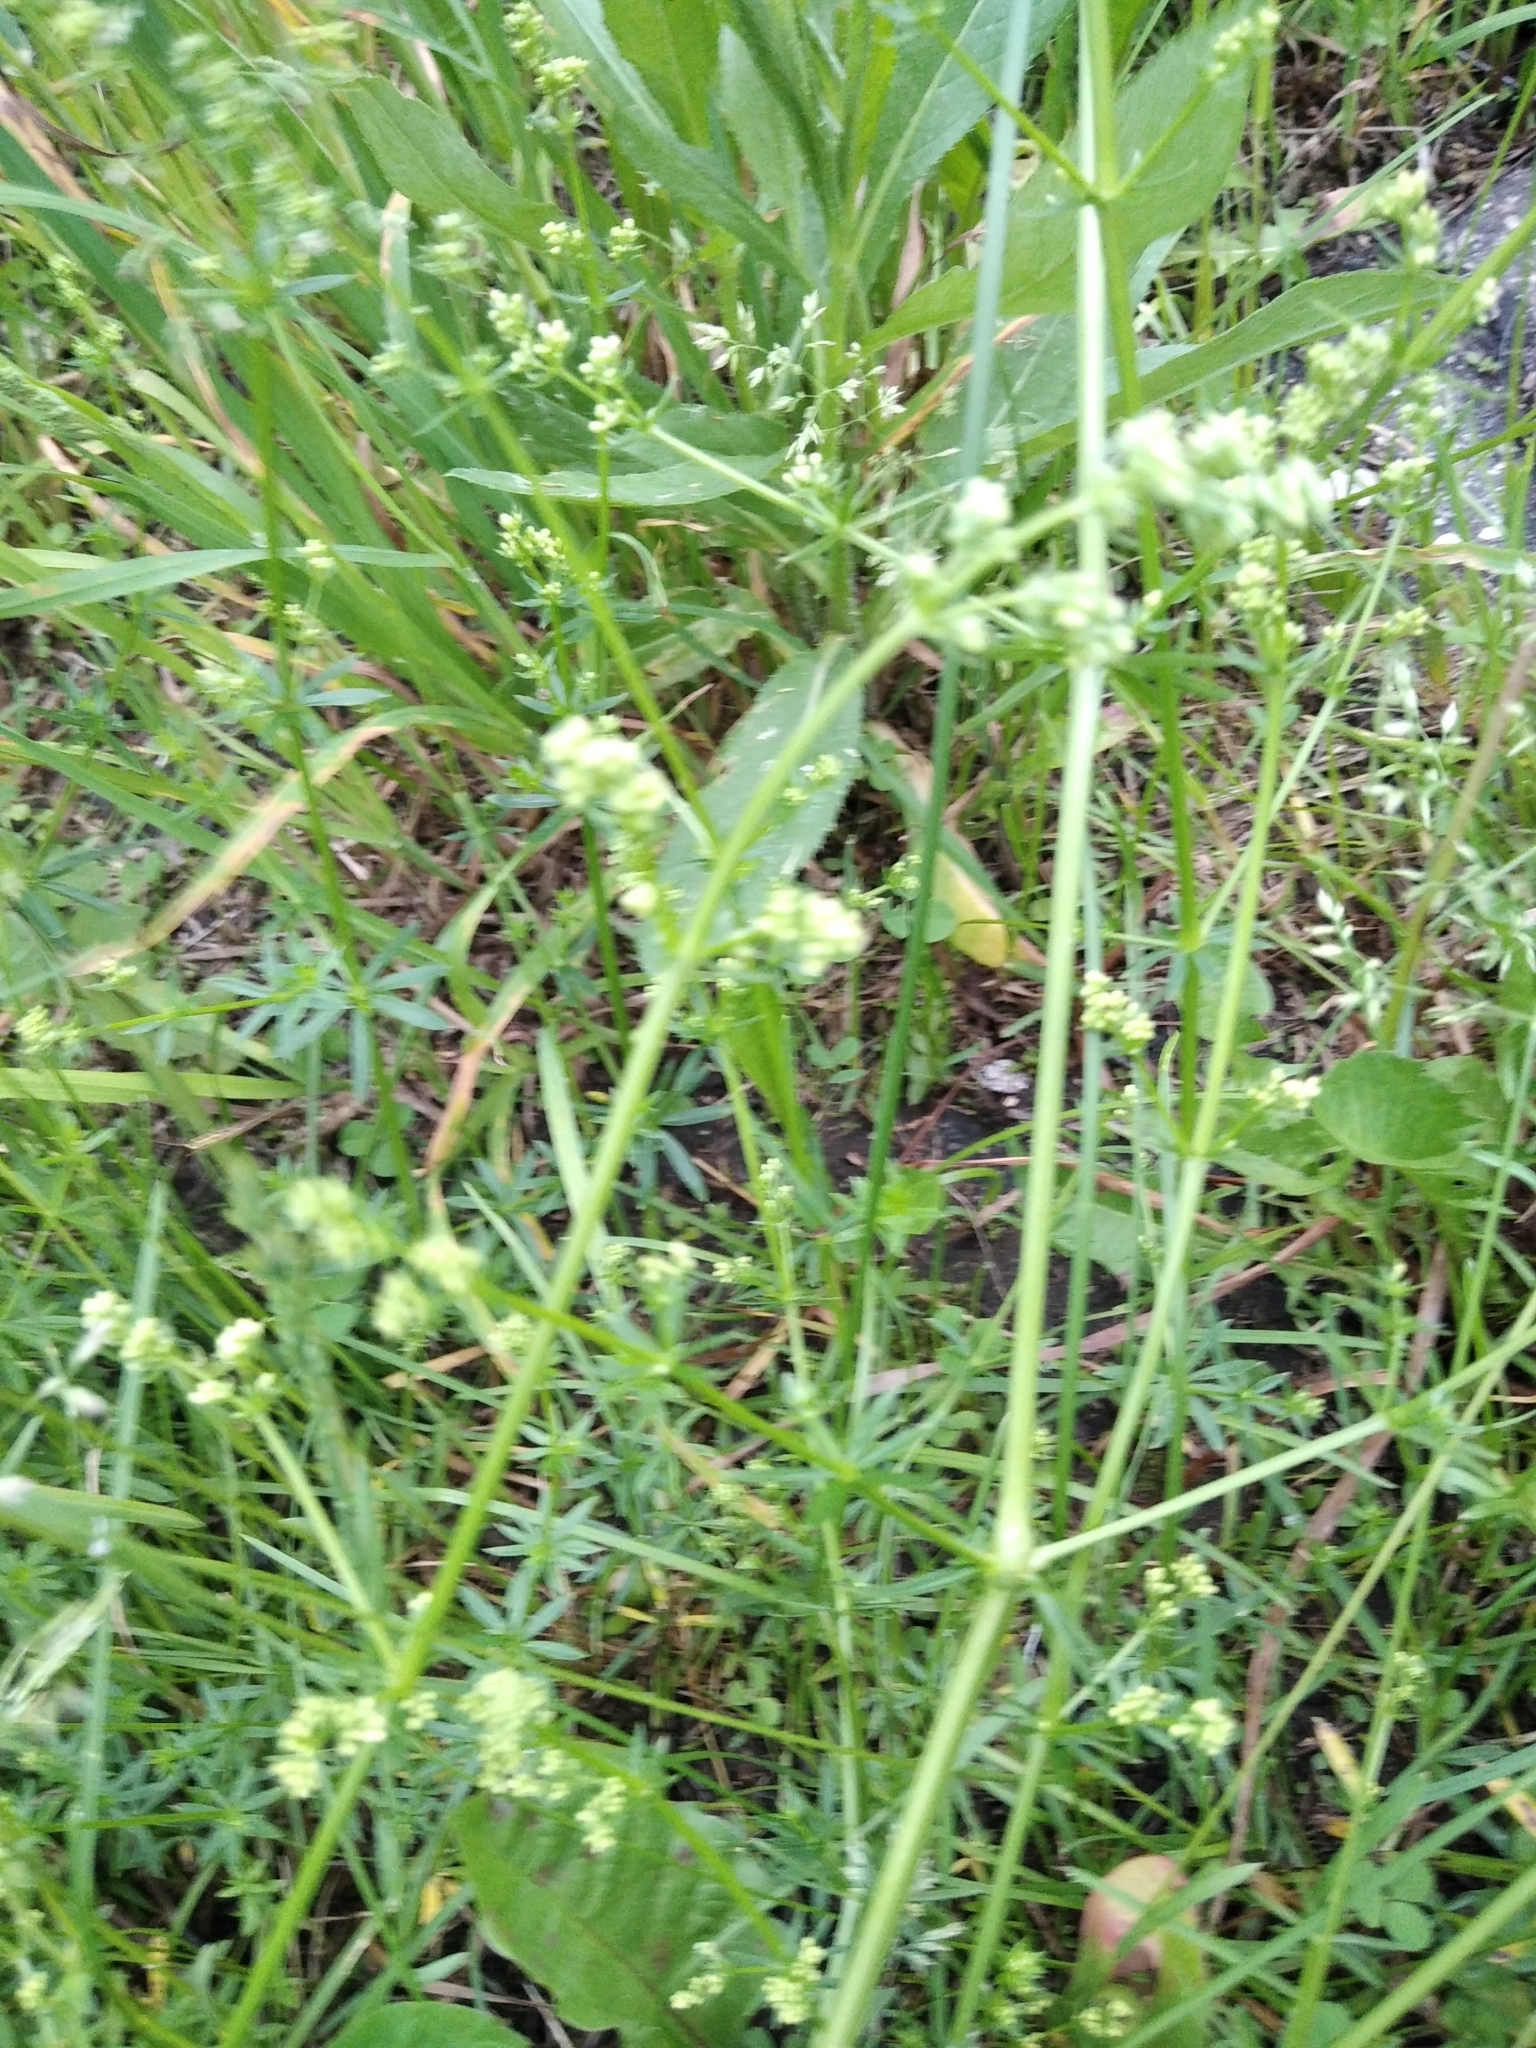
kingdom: Plantae
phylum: Tracheophyta
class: Magnoliopsida
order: Gentianales
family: Rubiaceae
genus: Galium
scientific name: Galium mollugo
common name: Hedge bedstraw
